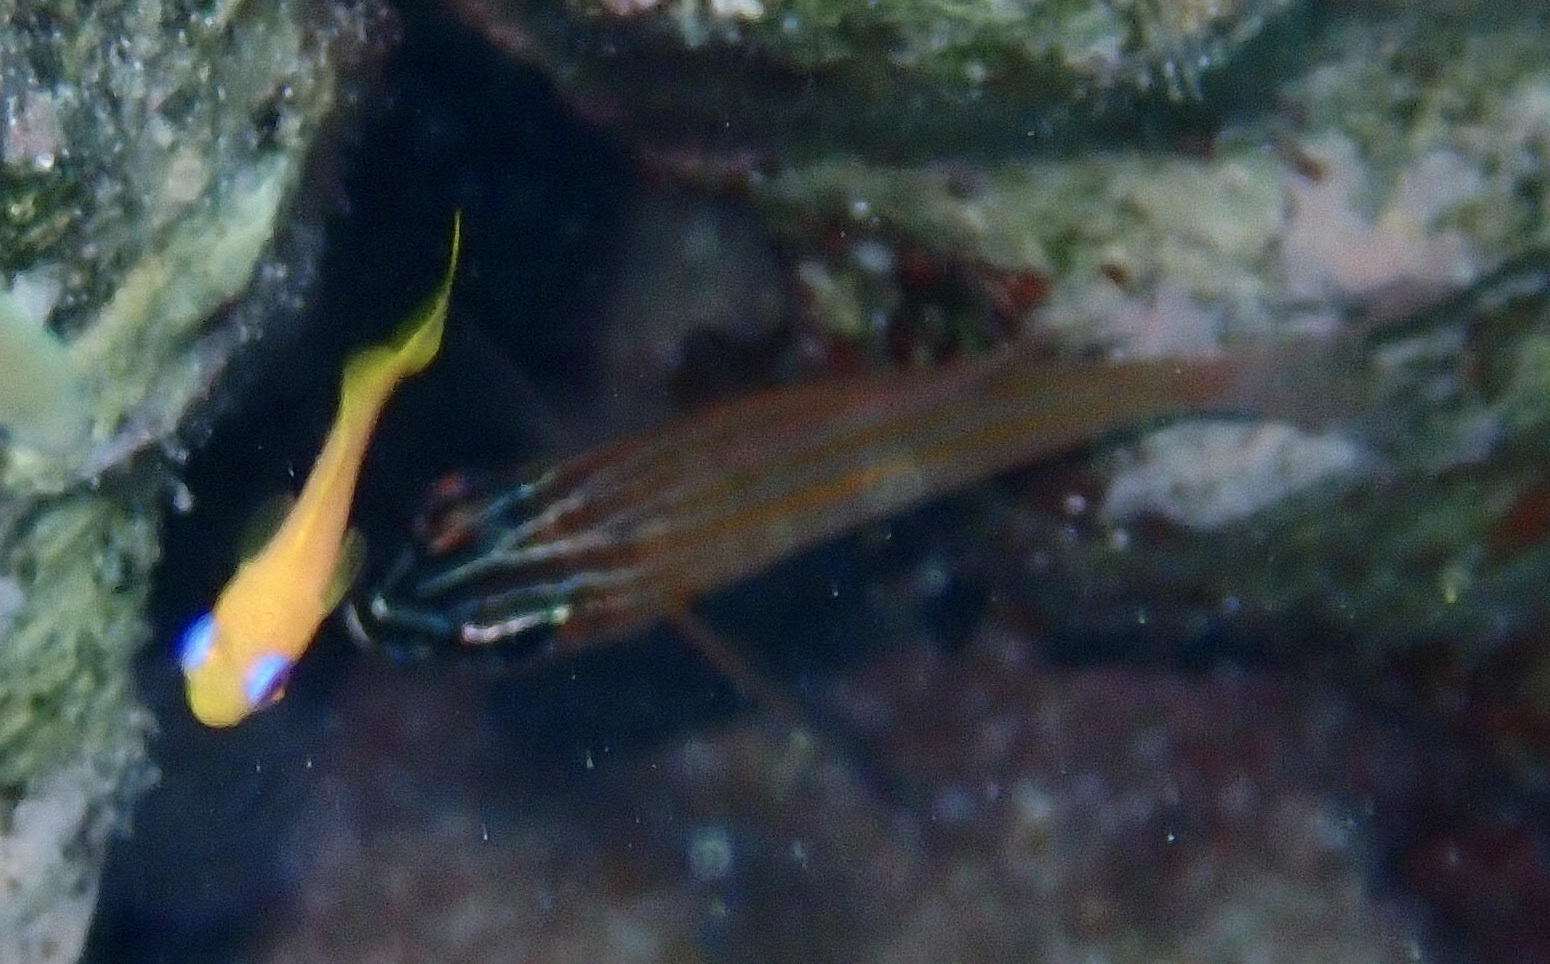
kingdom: Animalia
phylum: Chordata
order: Perciformes
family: Apogonidae
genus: Ostorhinchus
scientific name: Ostorhinchus cyanosoma
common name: Yellow-striped cardinalfish
